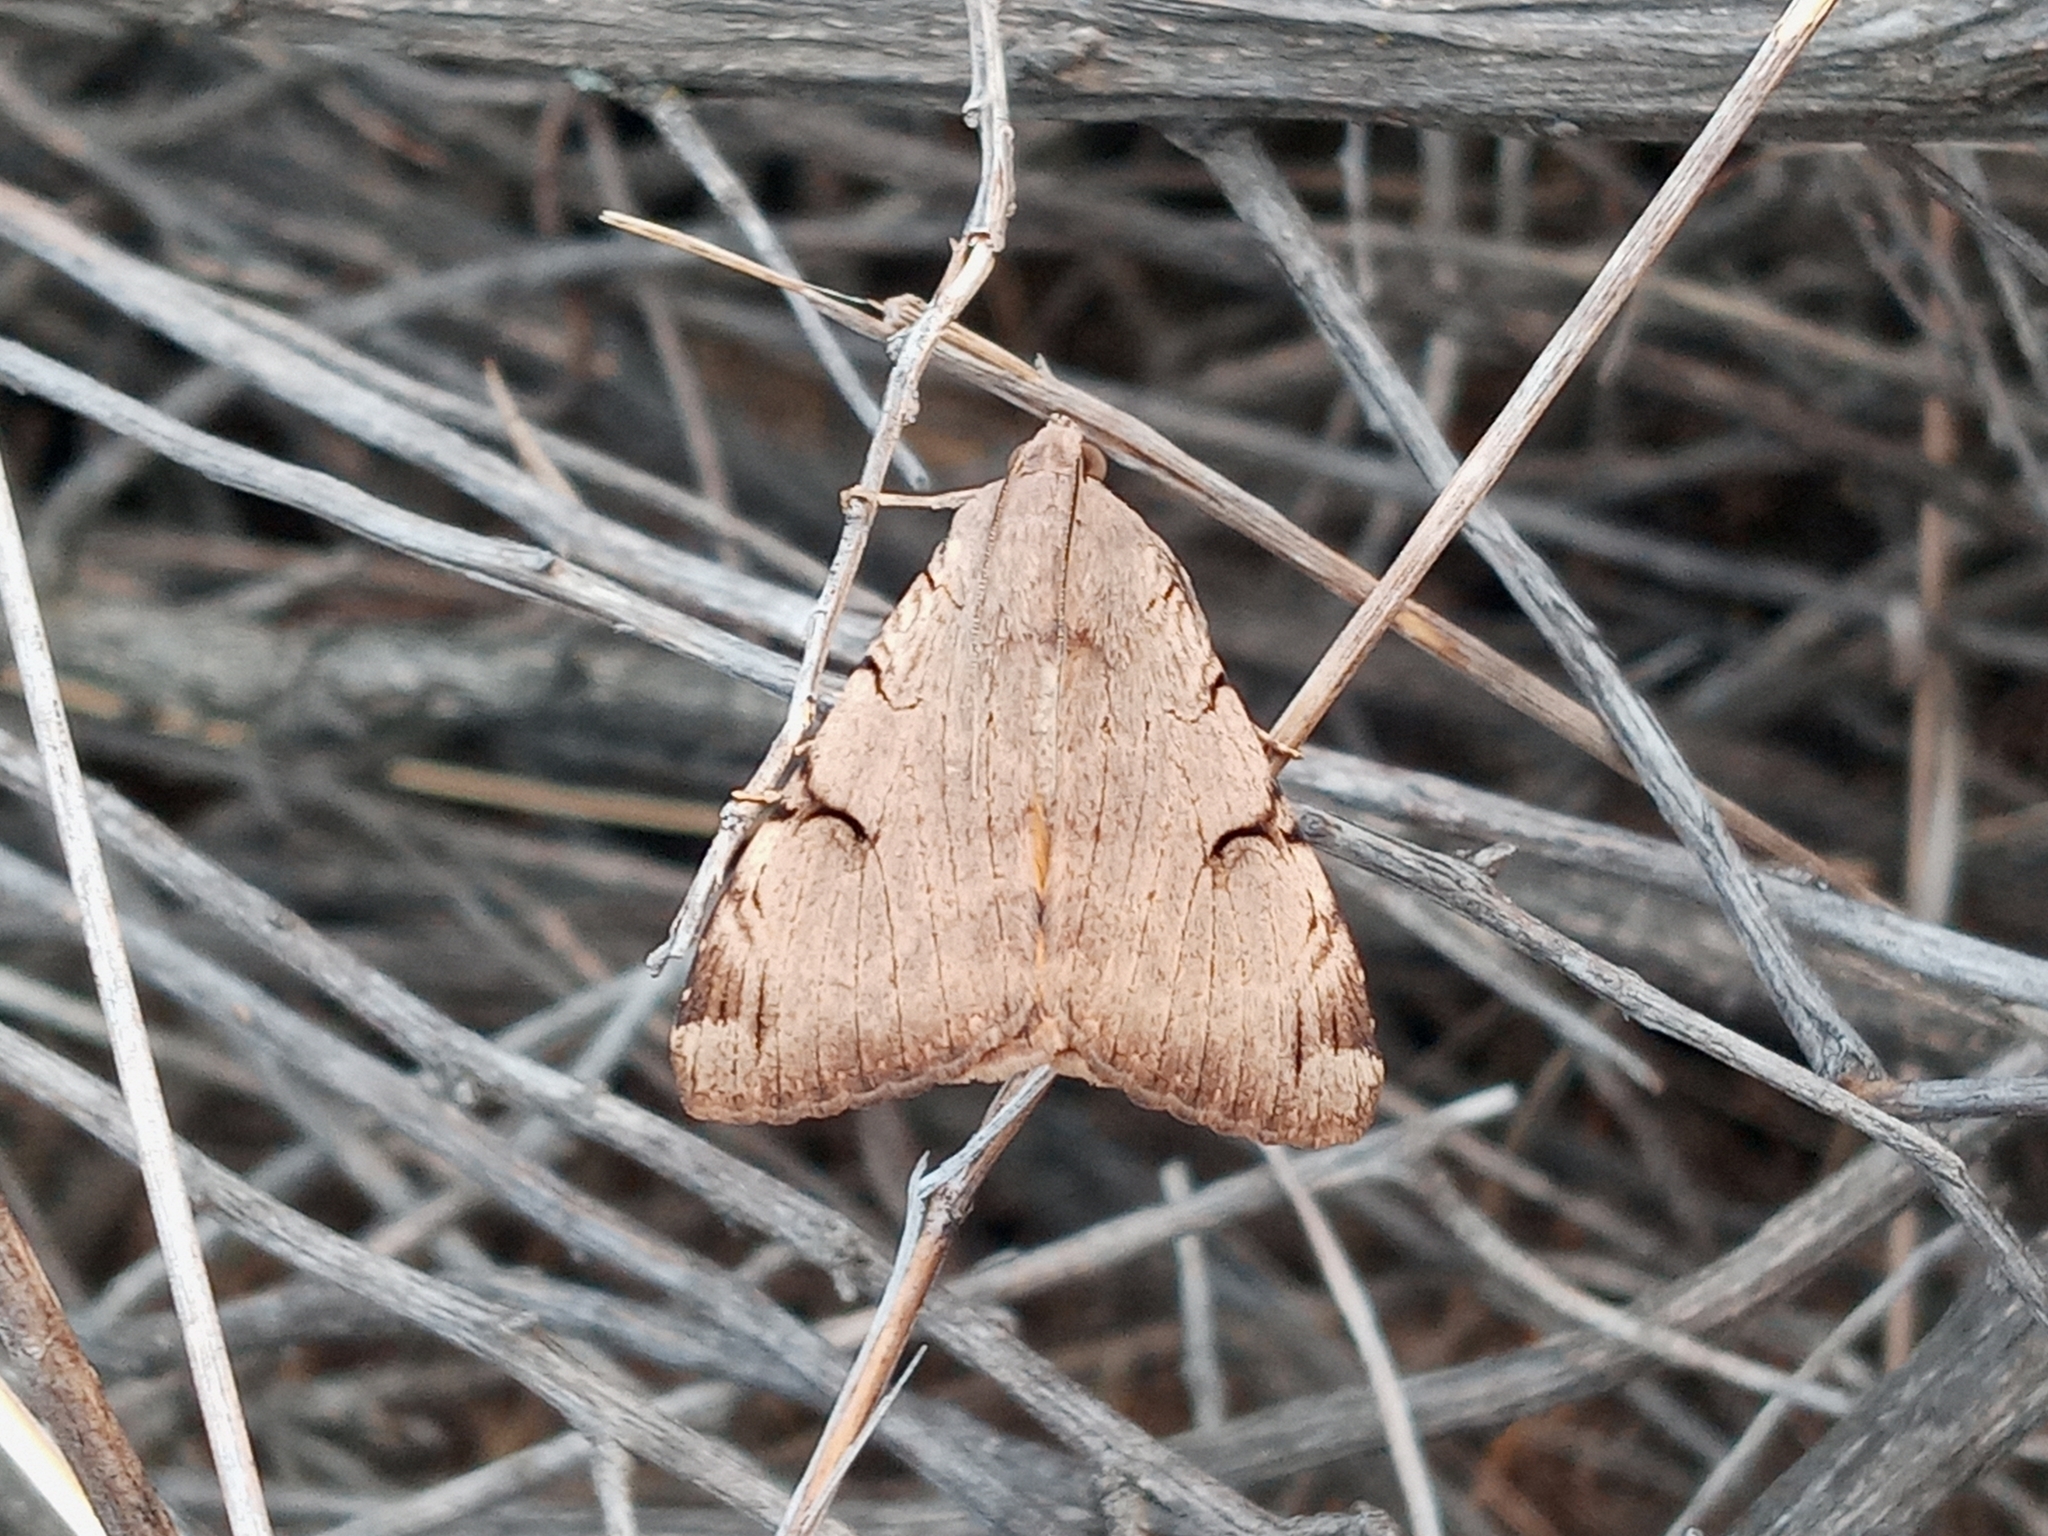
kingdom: Animalia
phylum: Arthropoda
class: Insecta
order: Lepidoptera
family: Erebidae
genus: Drasteria
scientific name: Drasteria ochracea
